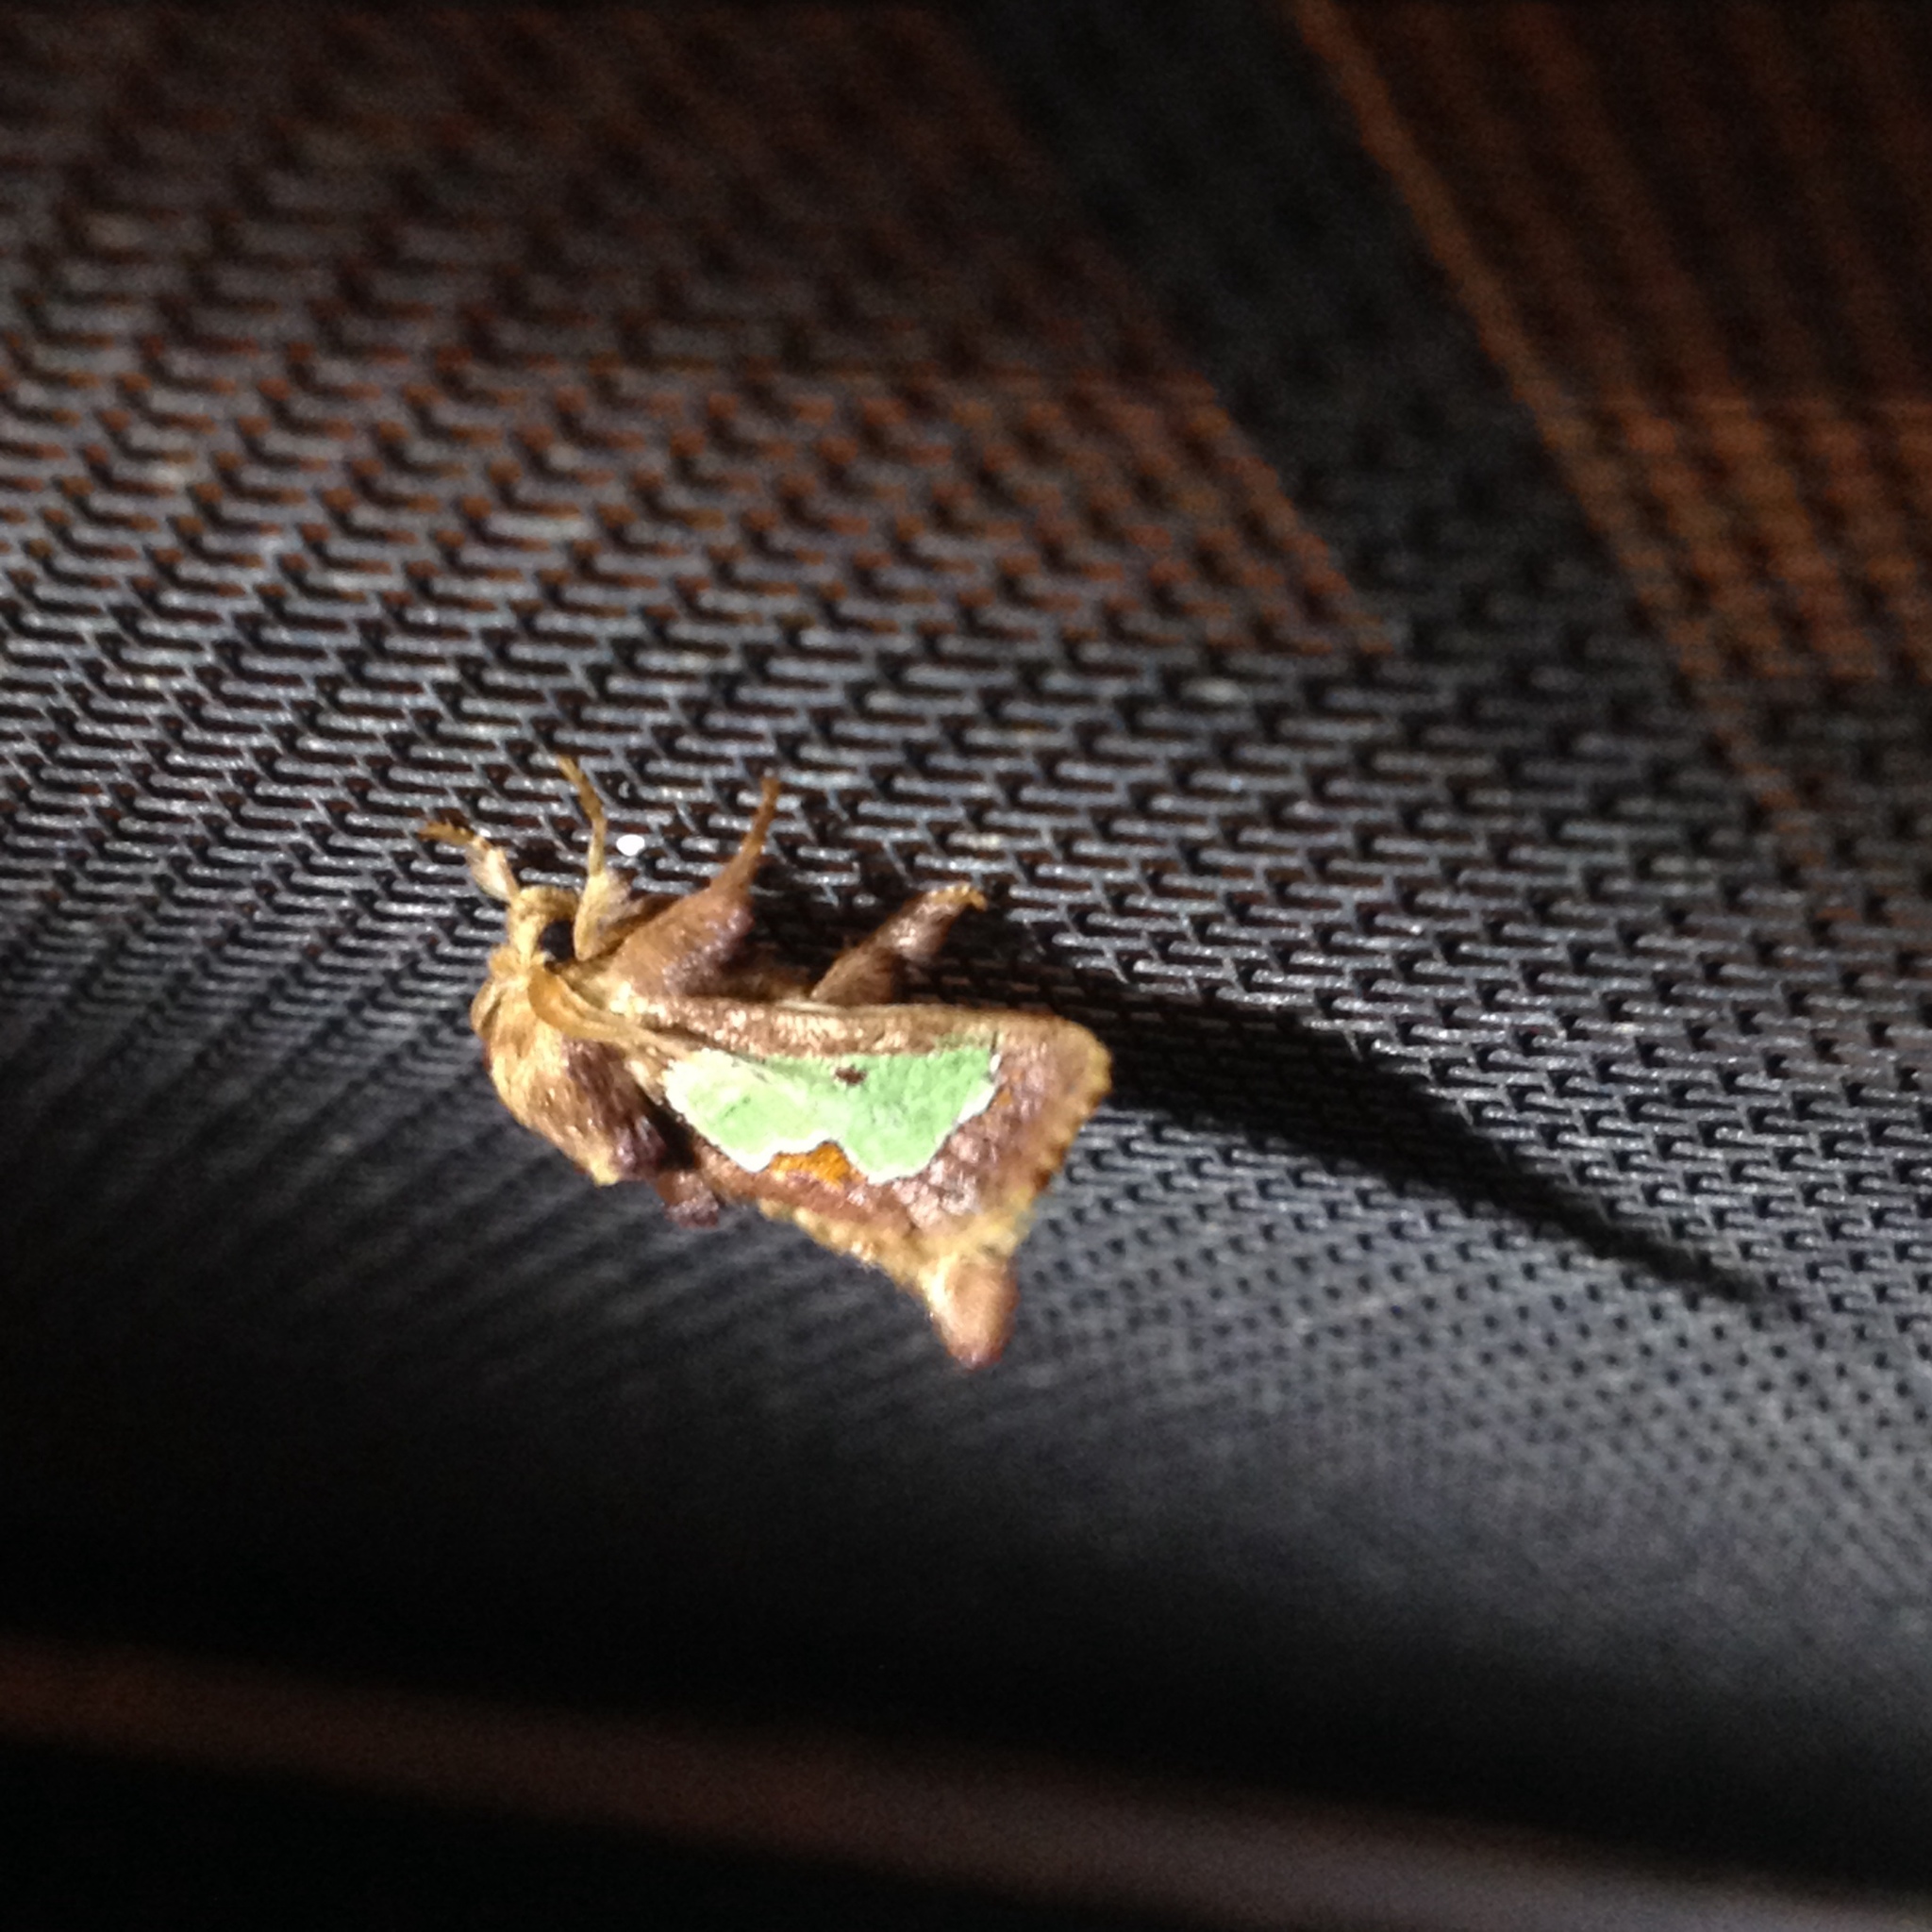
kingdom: Animalia
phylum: Arthropoda
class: Insecta
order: Lepidoptera
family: Limacodidae
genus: Euclea
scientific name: Euclea delphinii
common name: Spiny oak-slug moth
